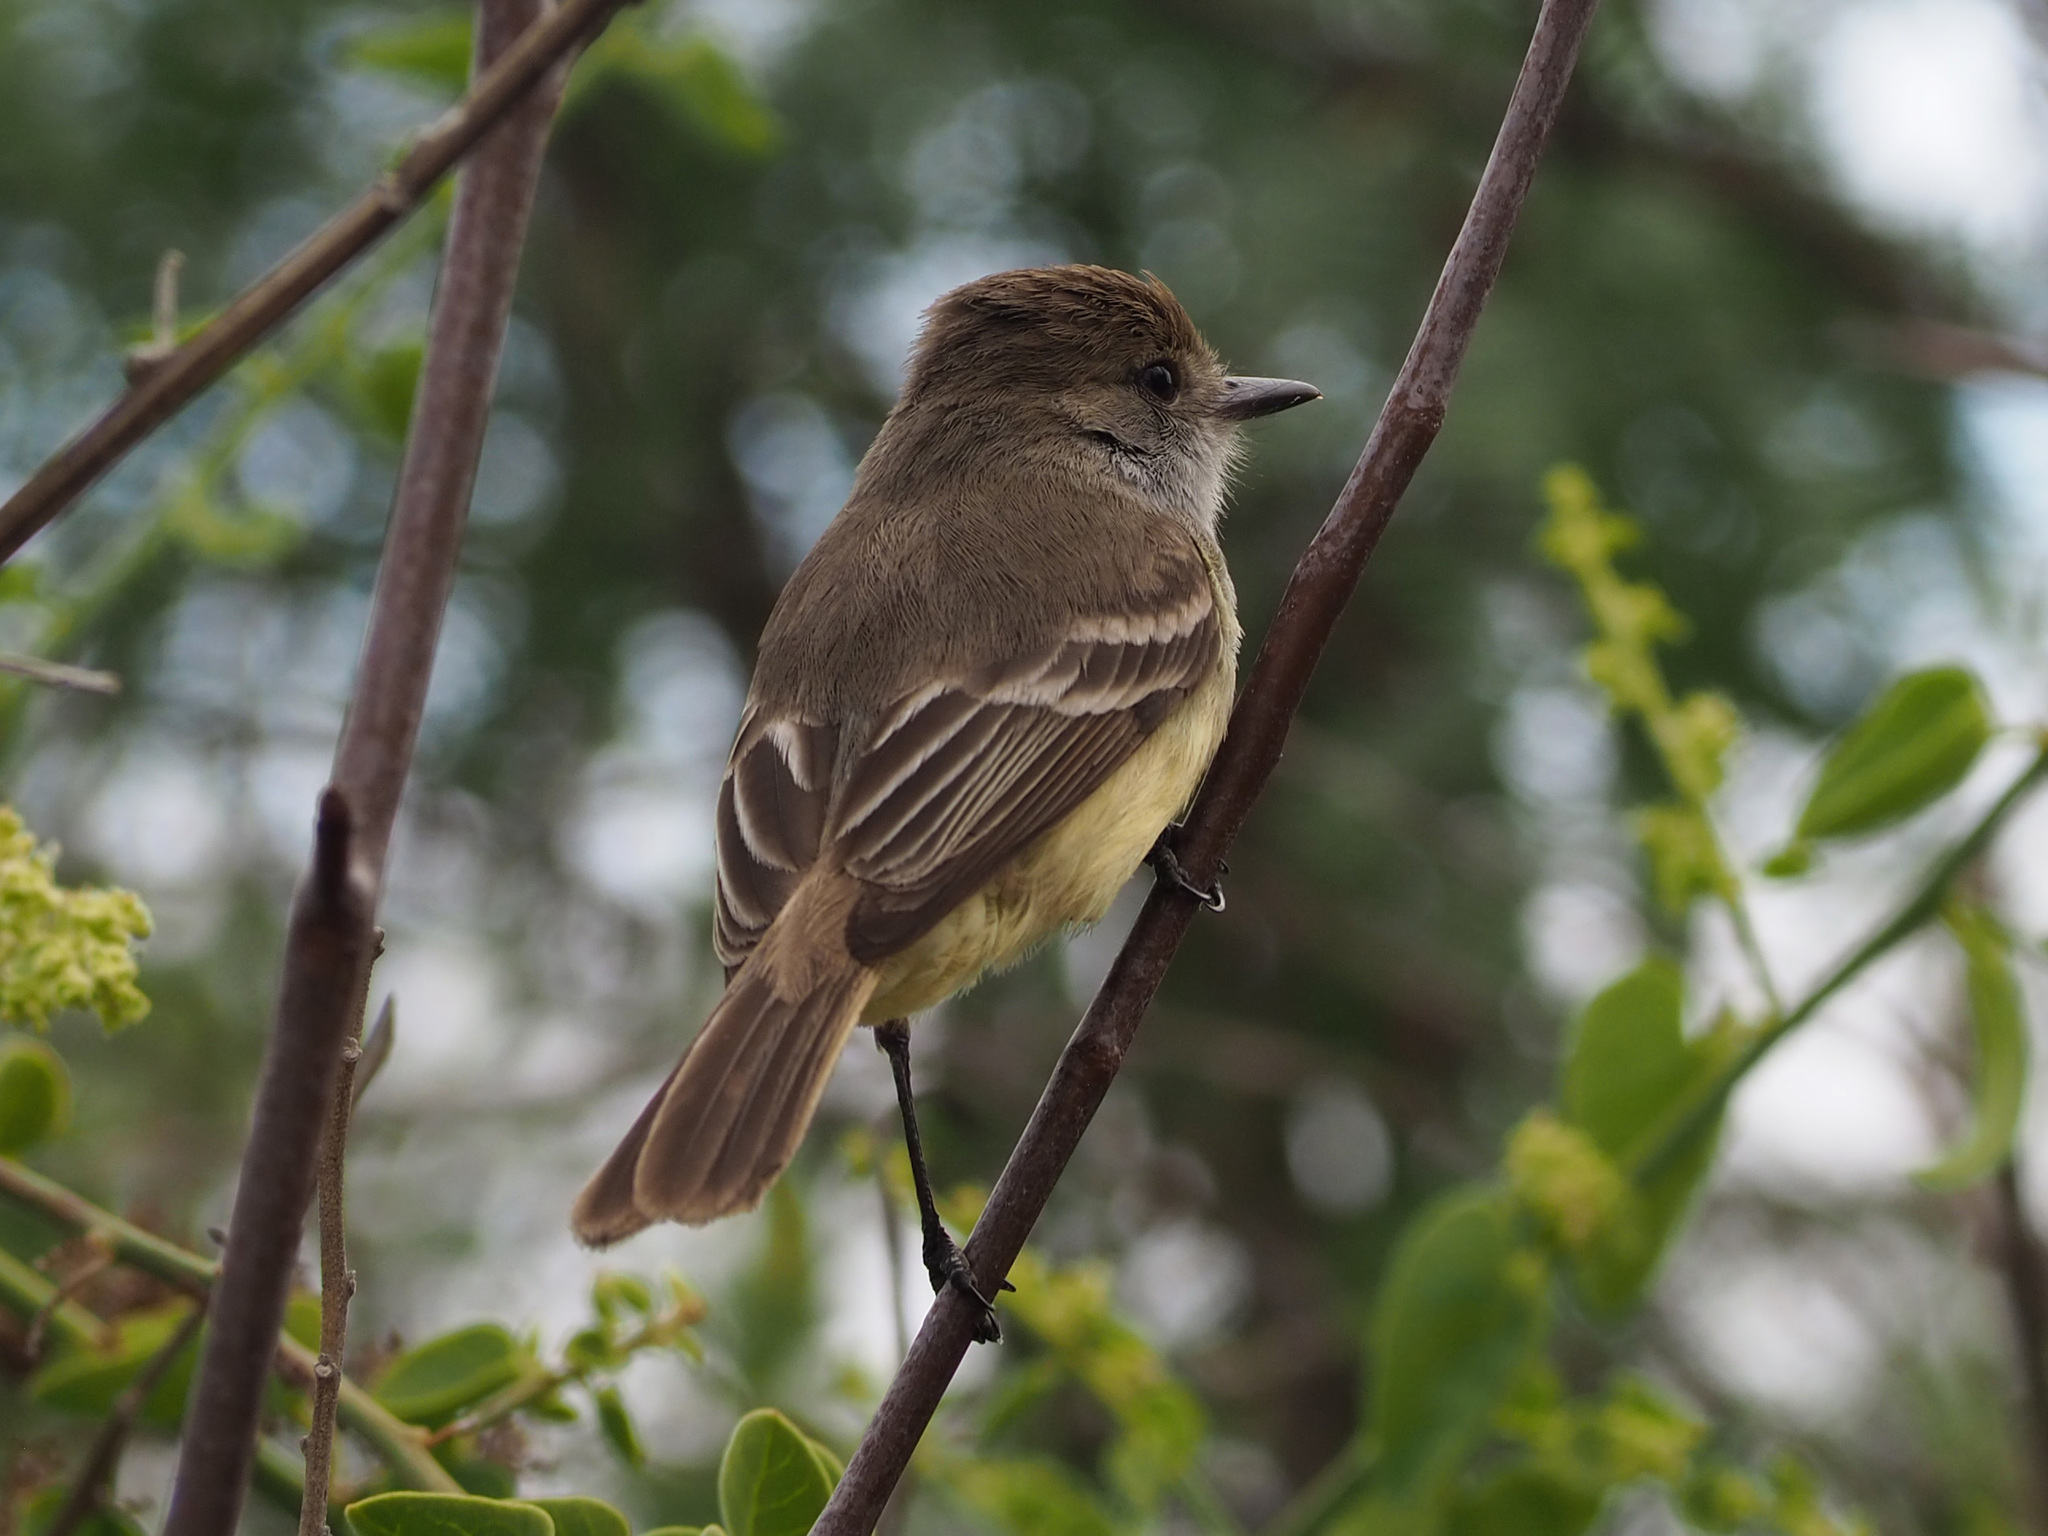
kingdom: Animalia
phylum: Chordata
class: Aves
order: Passeriformes
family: Tyrannidae
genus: Myiarchus
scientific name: Myiarchus magnirostris
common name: Galapagos flycatcher
